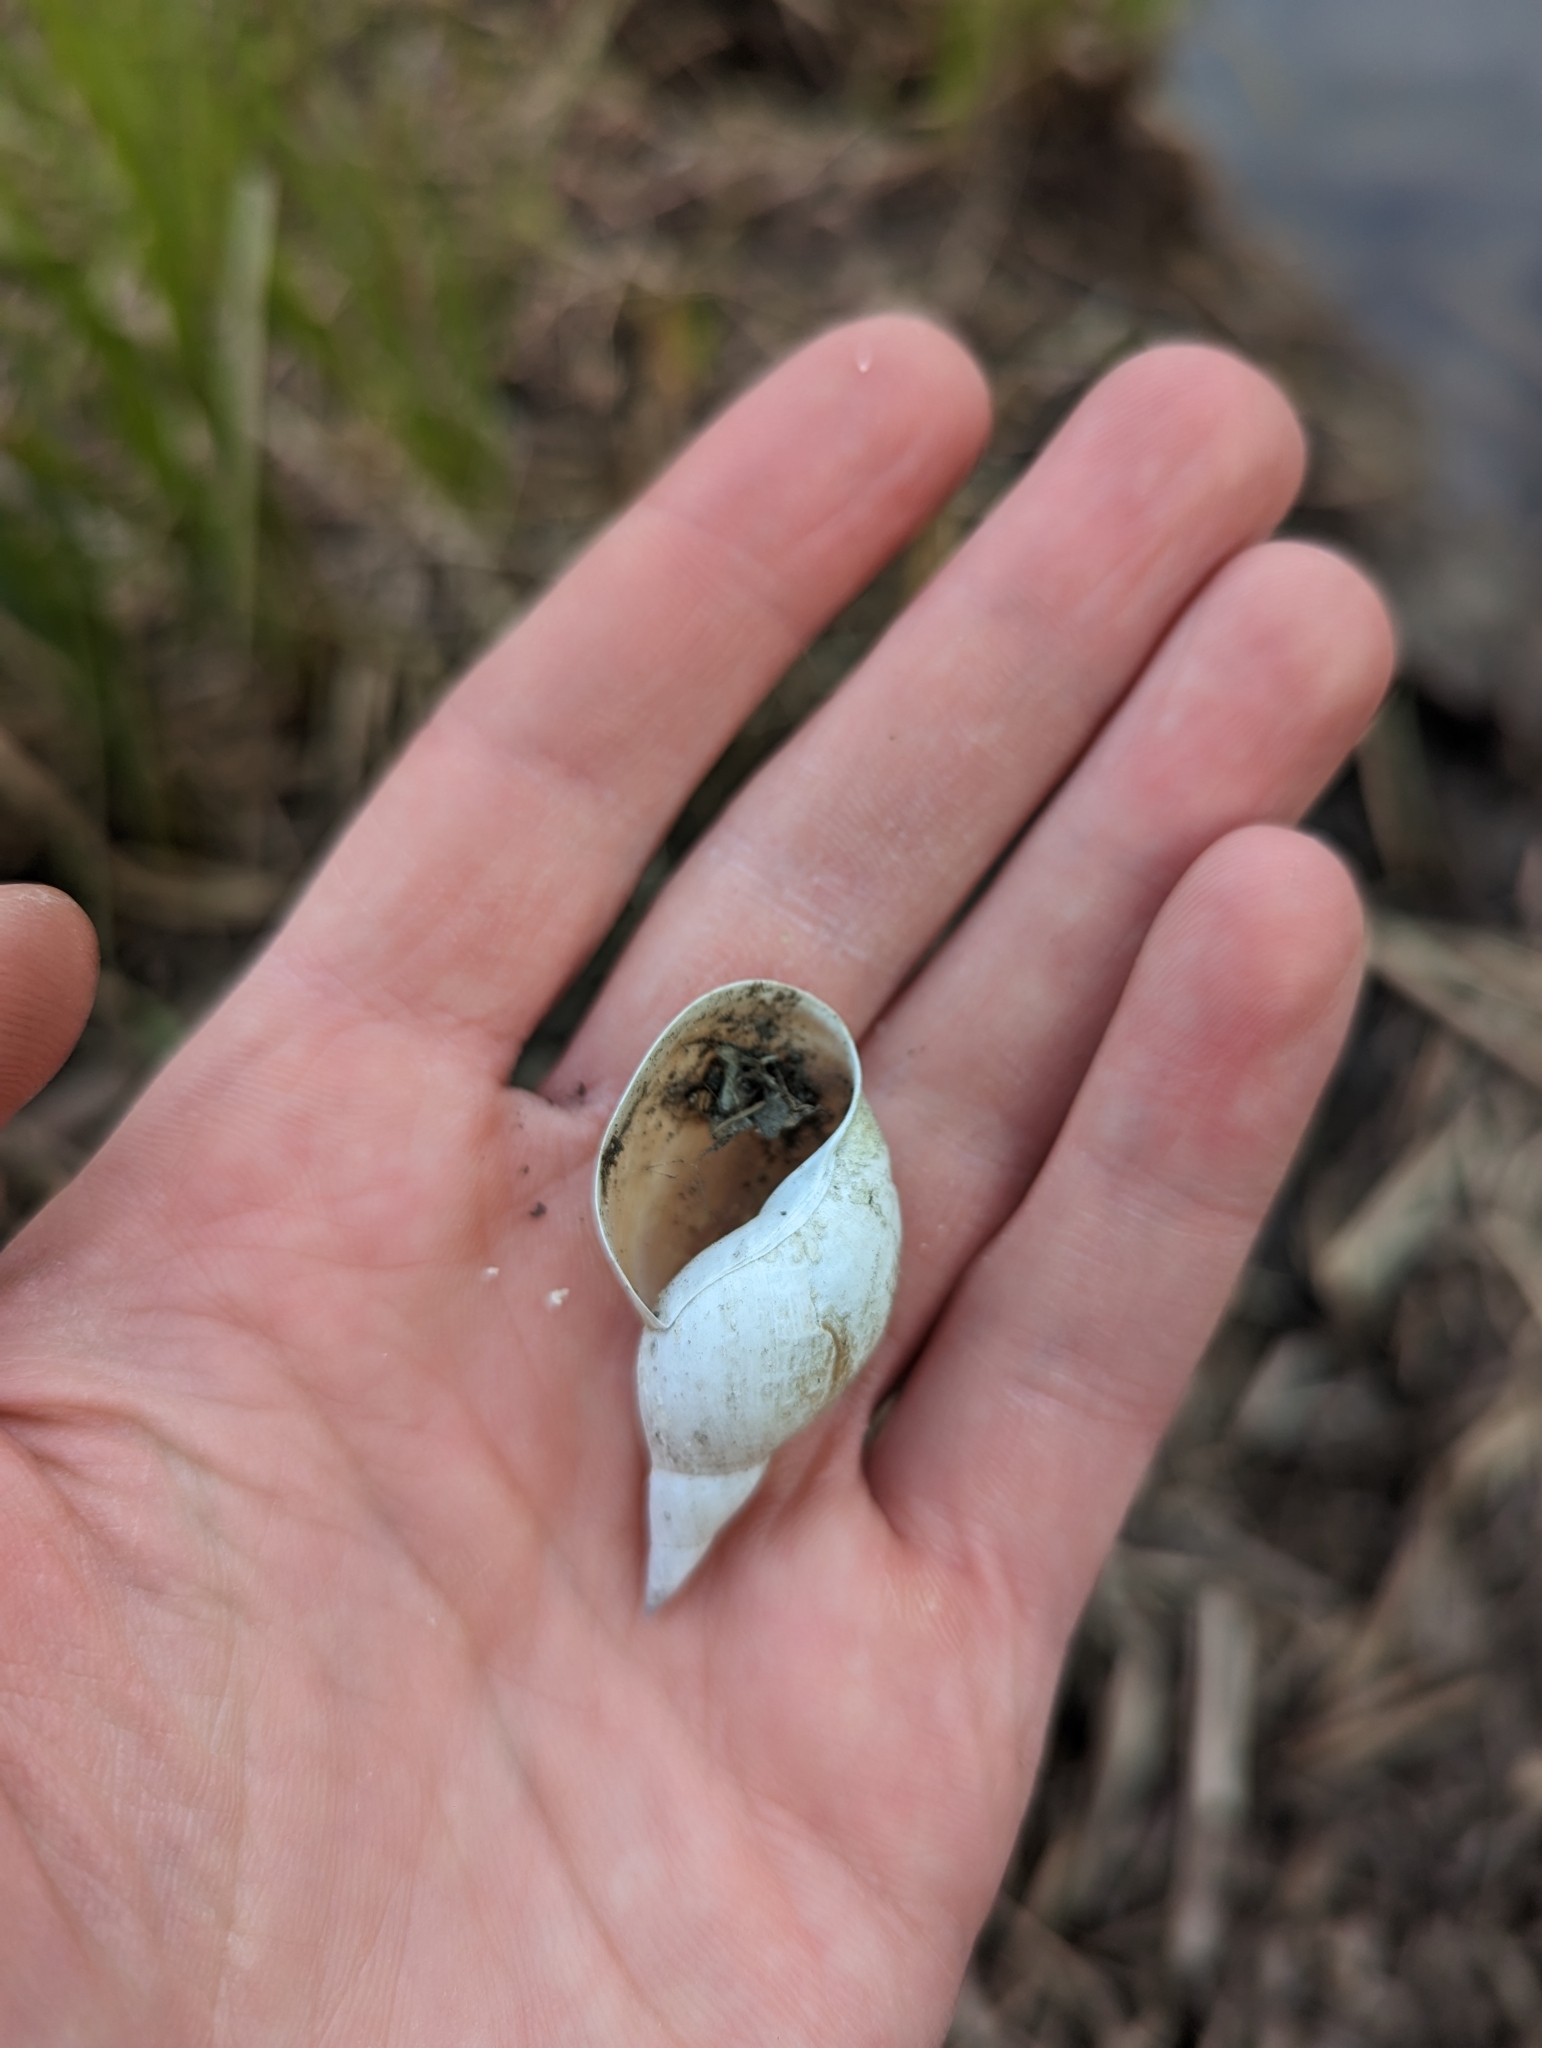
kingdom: Animalia
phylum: Mollusca
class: Gastropoda
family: Lymnaeidae
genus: Lymnaea
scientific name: Lymnaea stagnalis
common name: Great pond snail
